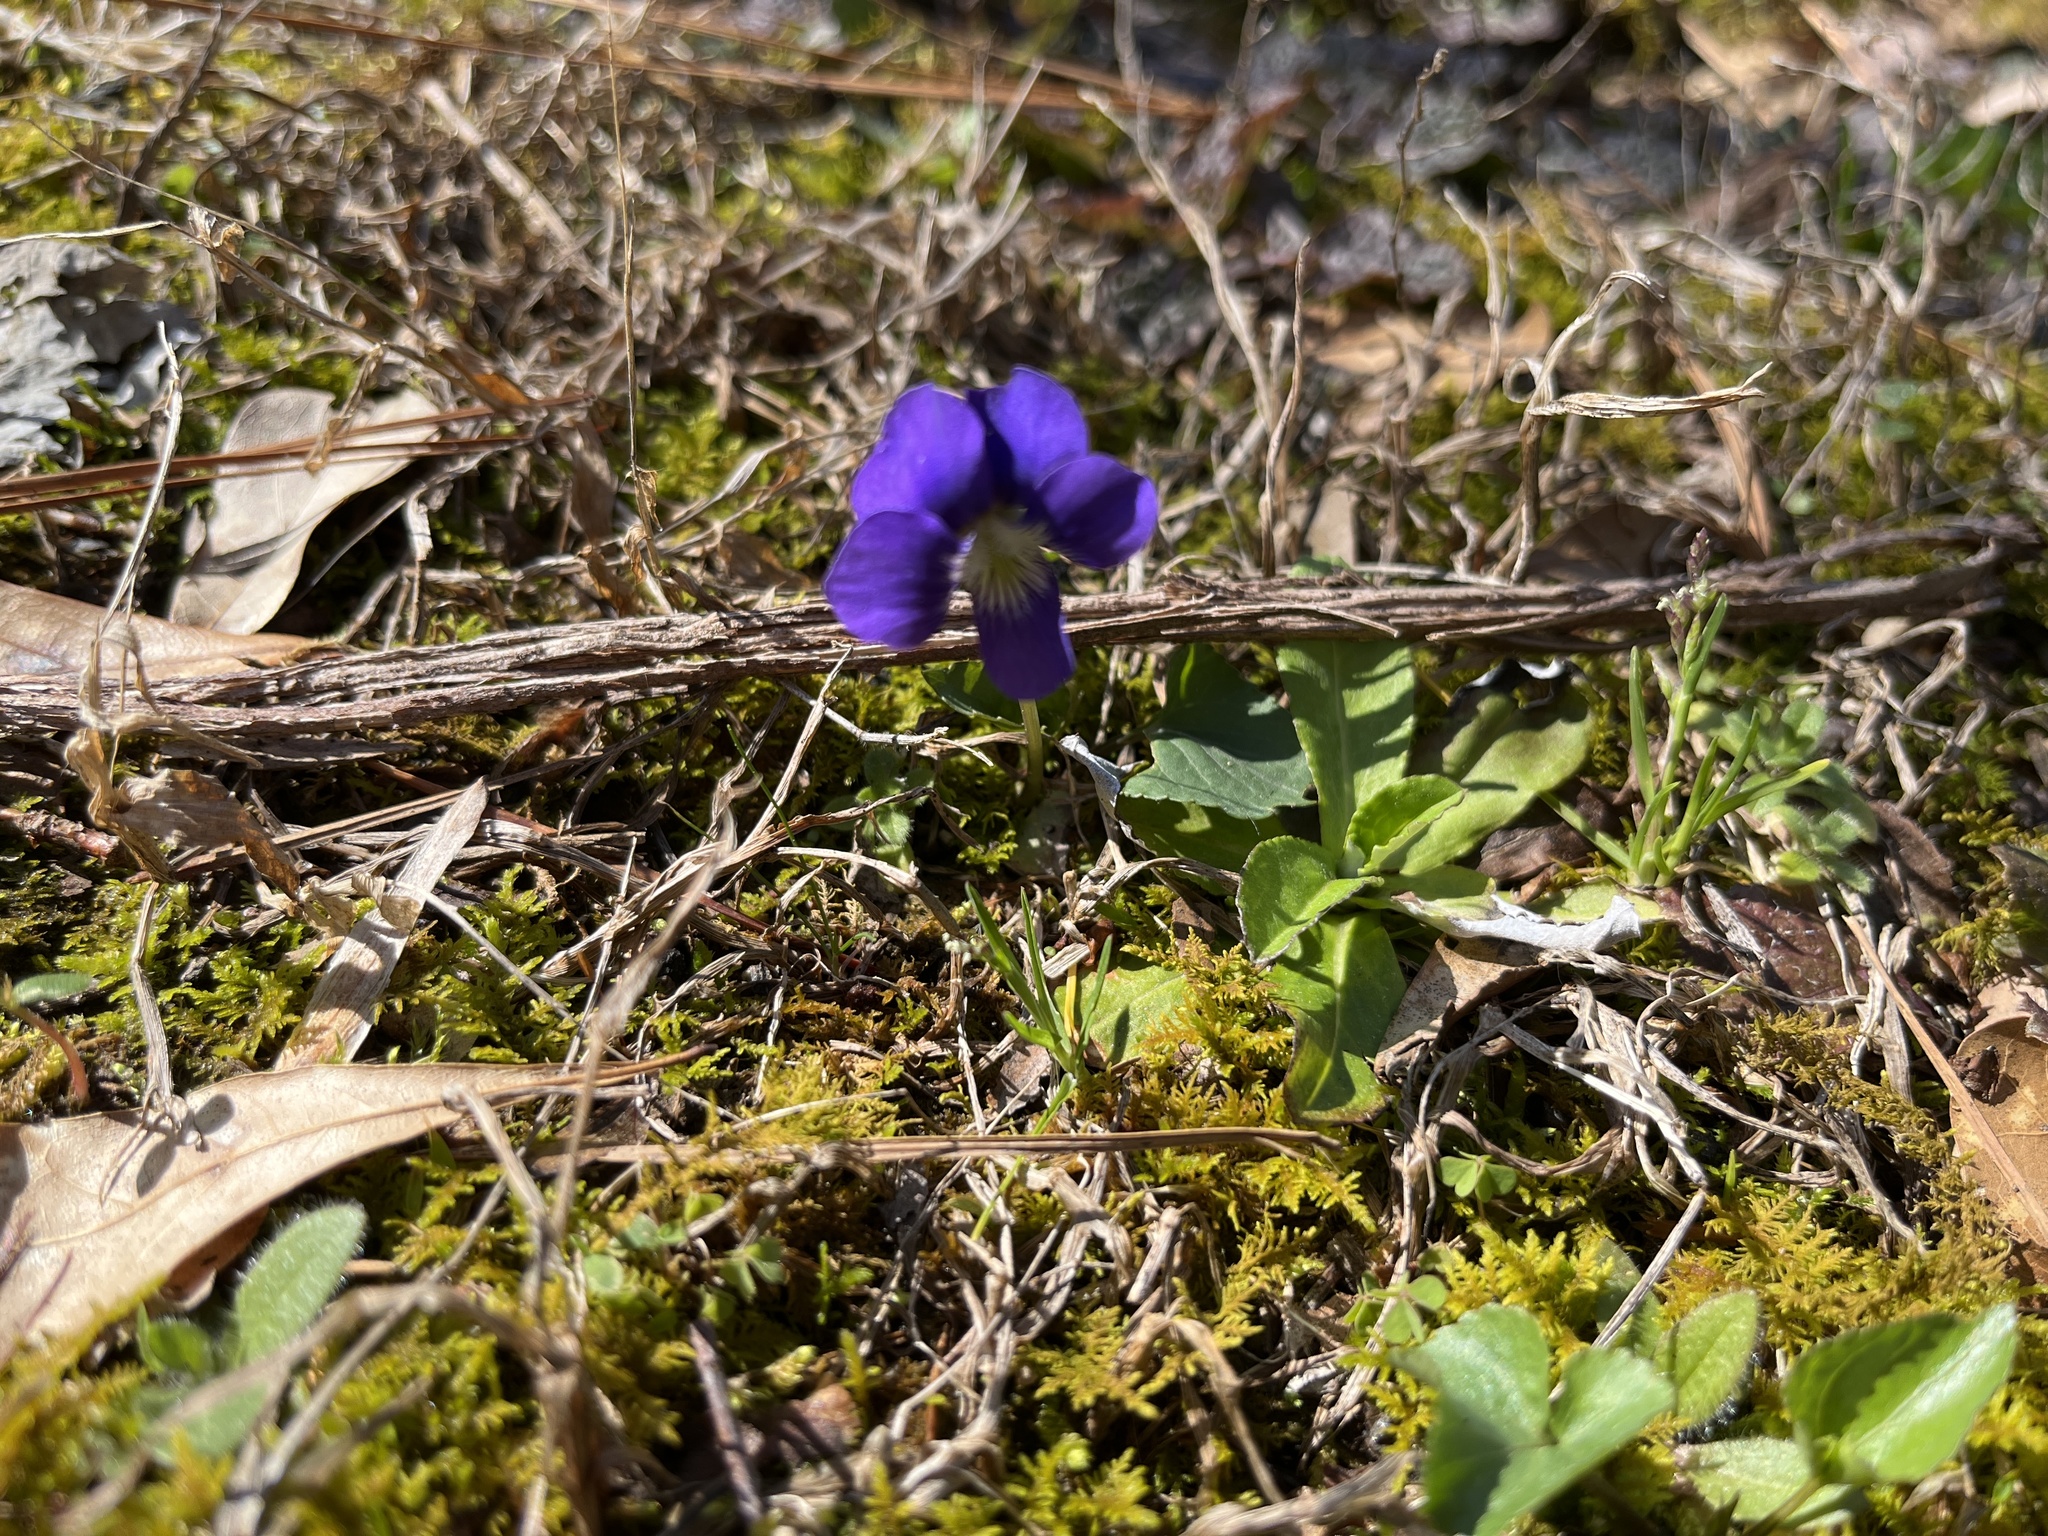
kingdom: Plantae
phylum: Tracheophyta
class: Magnoliopsida
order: Malpighiales
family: Violaceae
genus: Viola
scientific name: Viola sororia
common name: Dooryard violet
